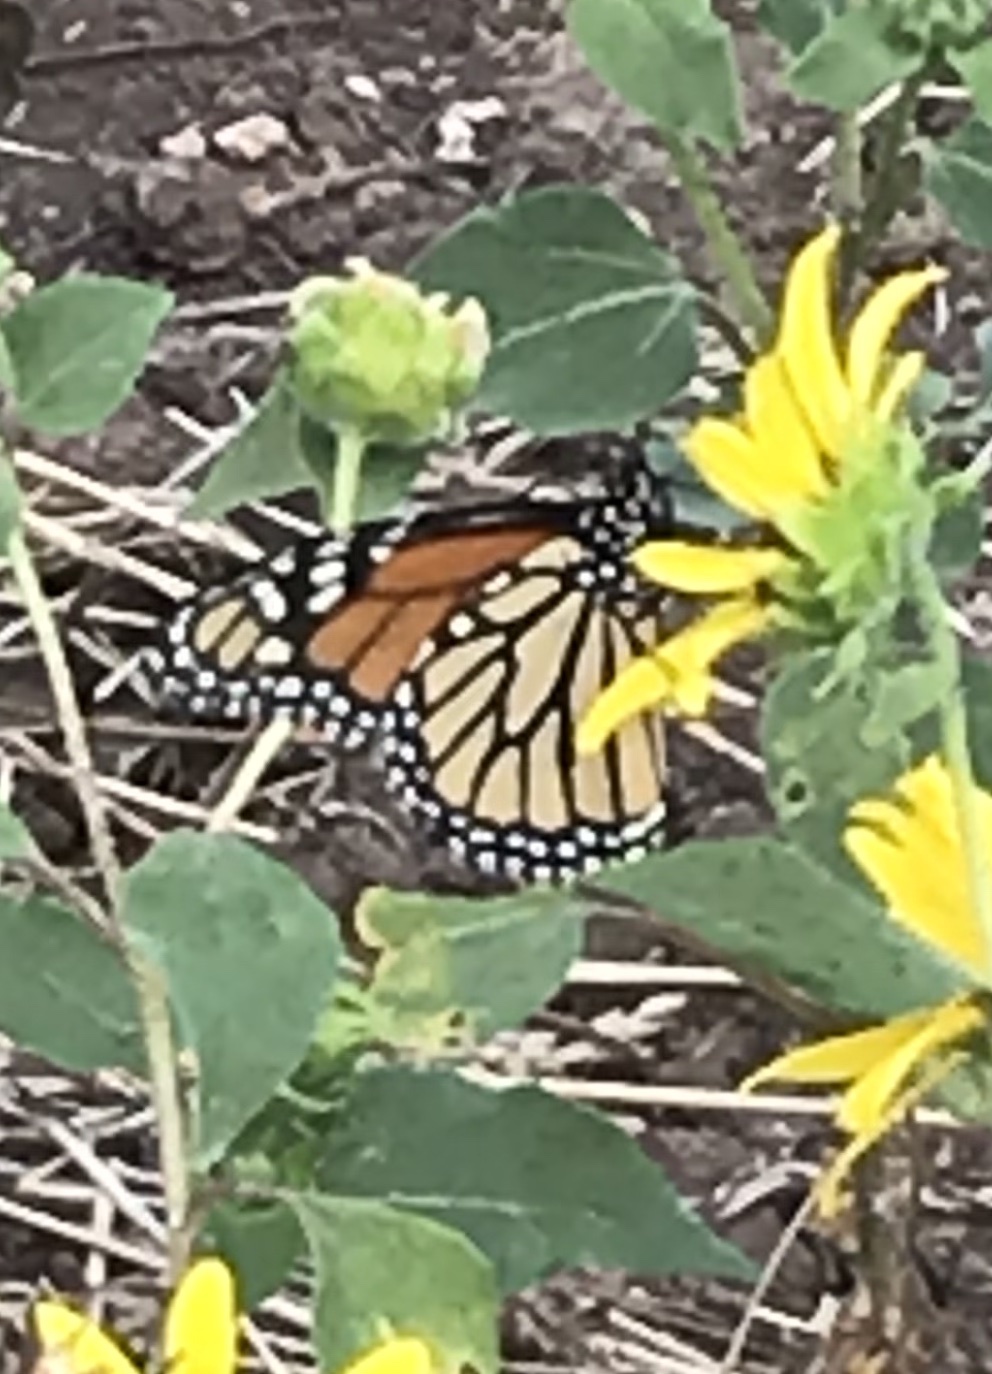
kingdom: Animalia
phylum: Arthropoda
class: Insecta
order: Lepidoptera
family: Nymphalidae
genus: Danaus
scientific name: Danaus plexippus
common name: Monarch
